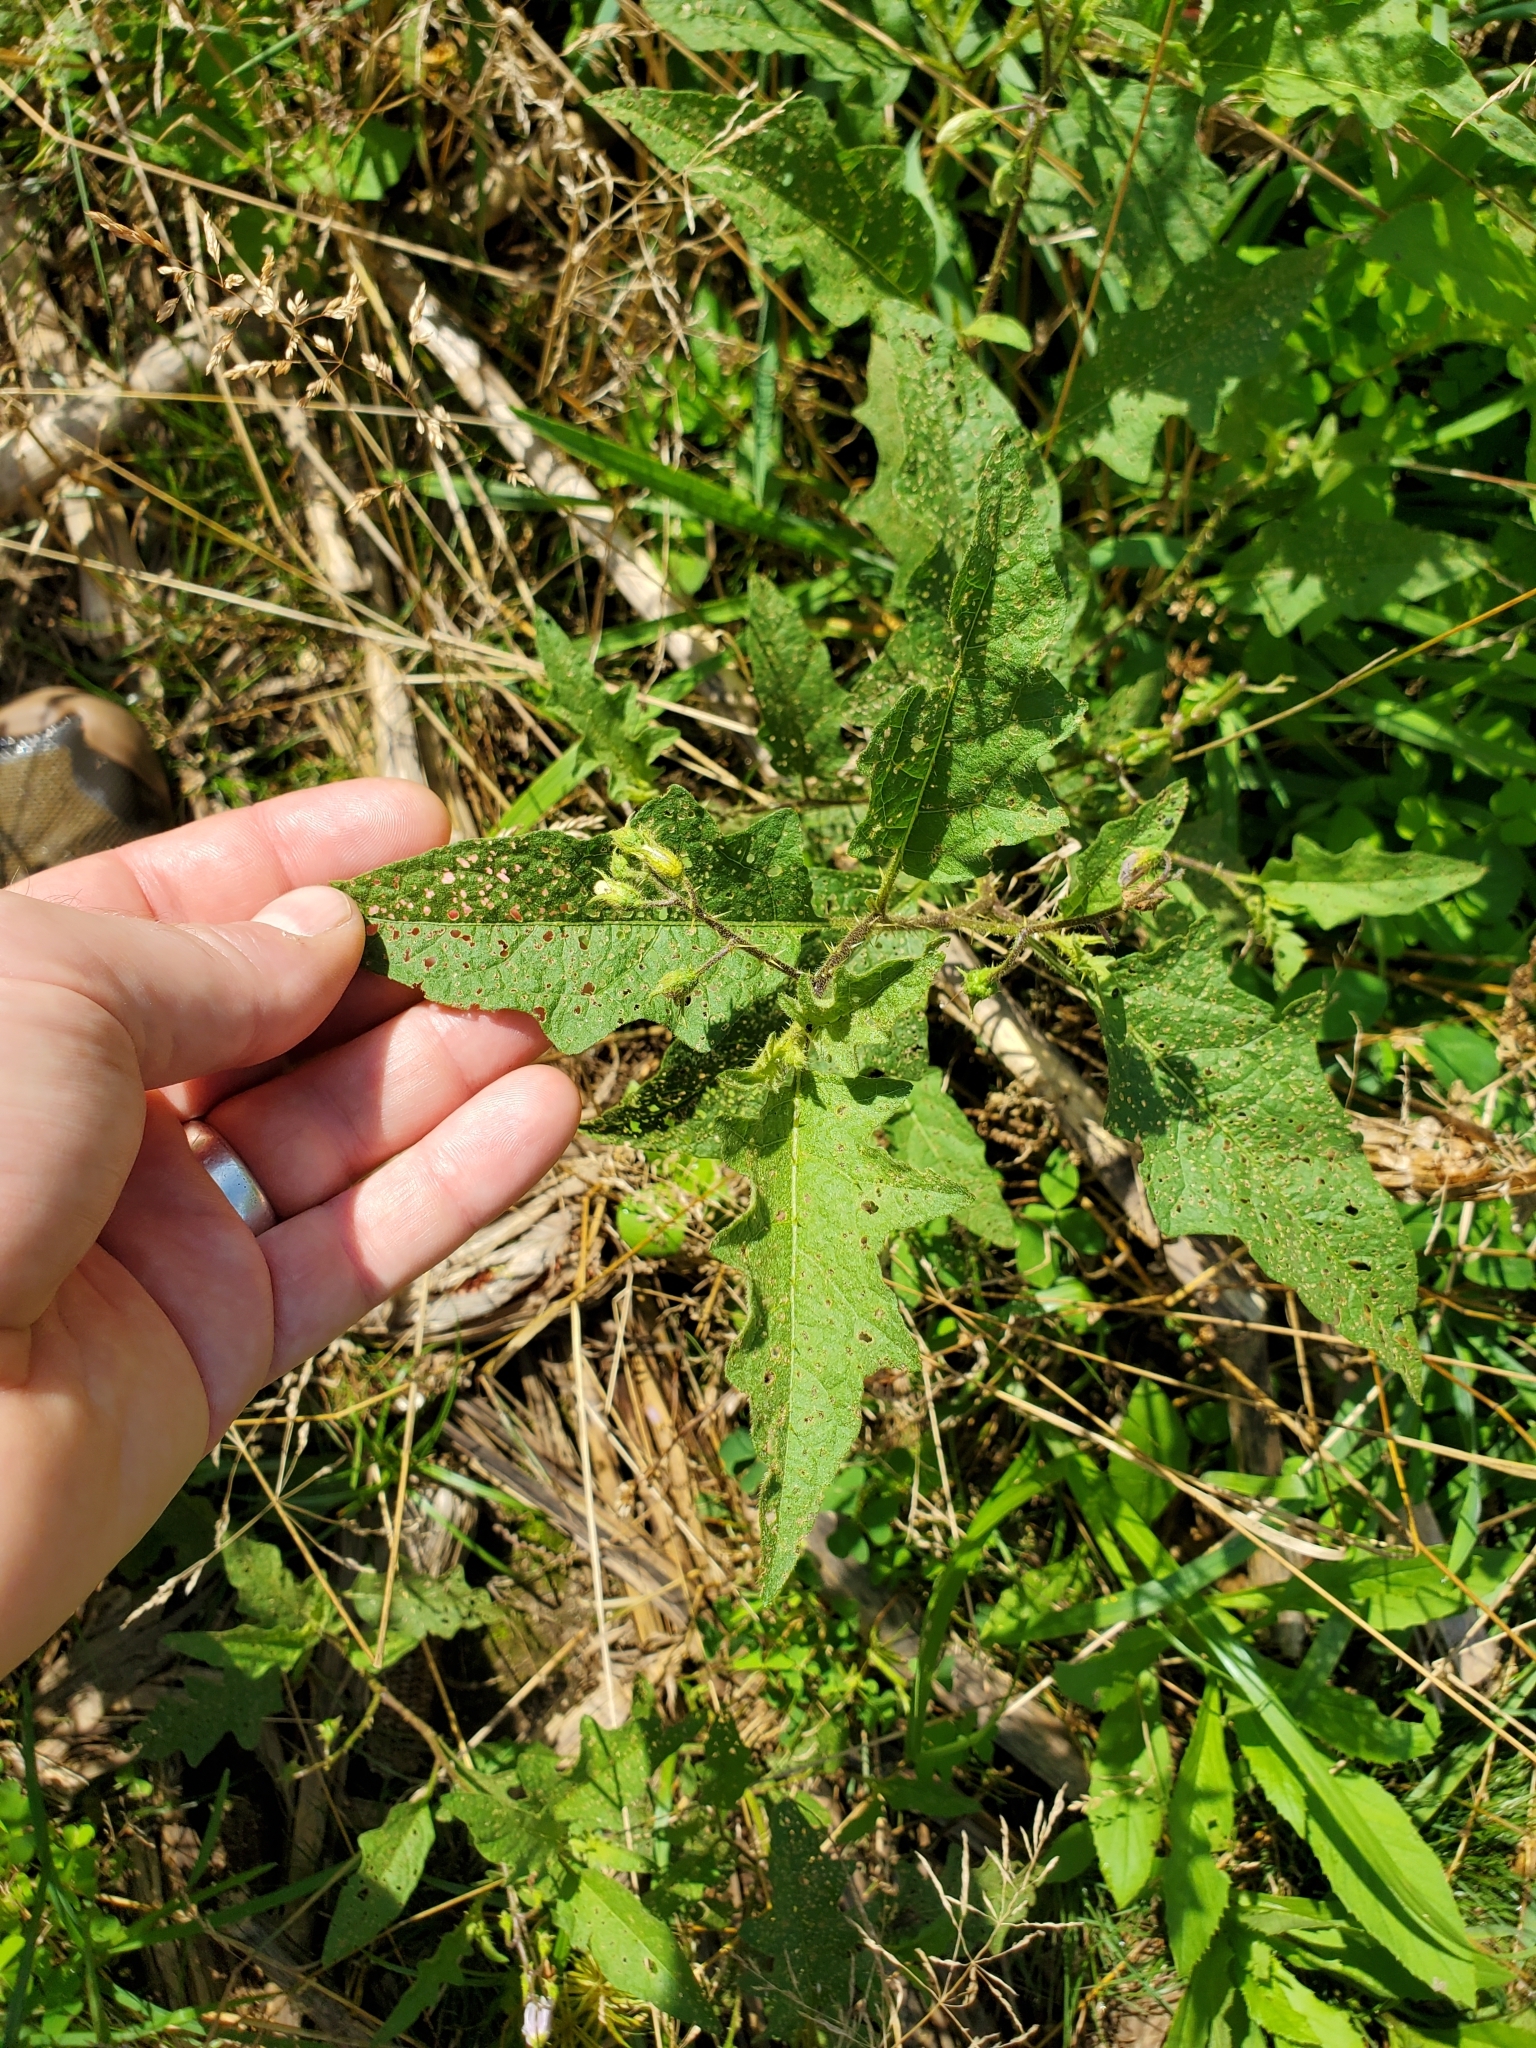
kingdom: Plantae
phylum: Tracheophyta
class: Magnoliopsida
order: Solanales
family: Solanaceae
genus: Solanum
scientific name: Solanum carolinense
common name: Horse-nettle
